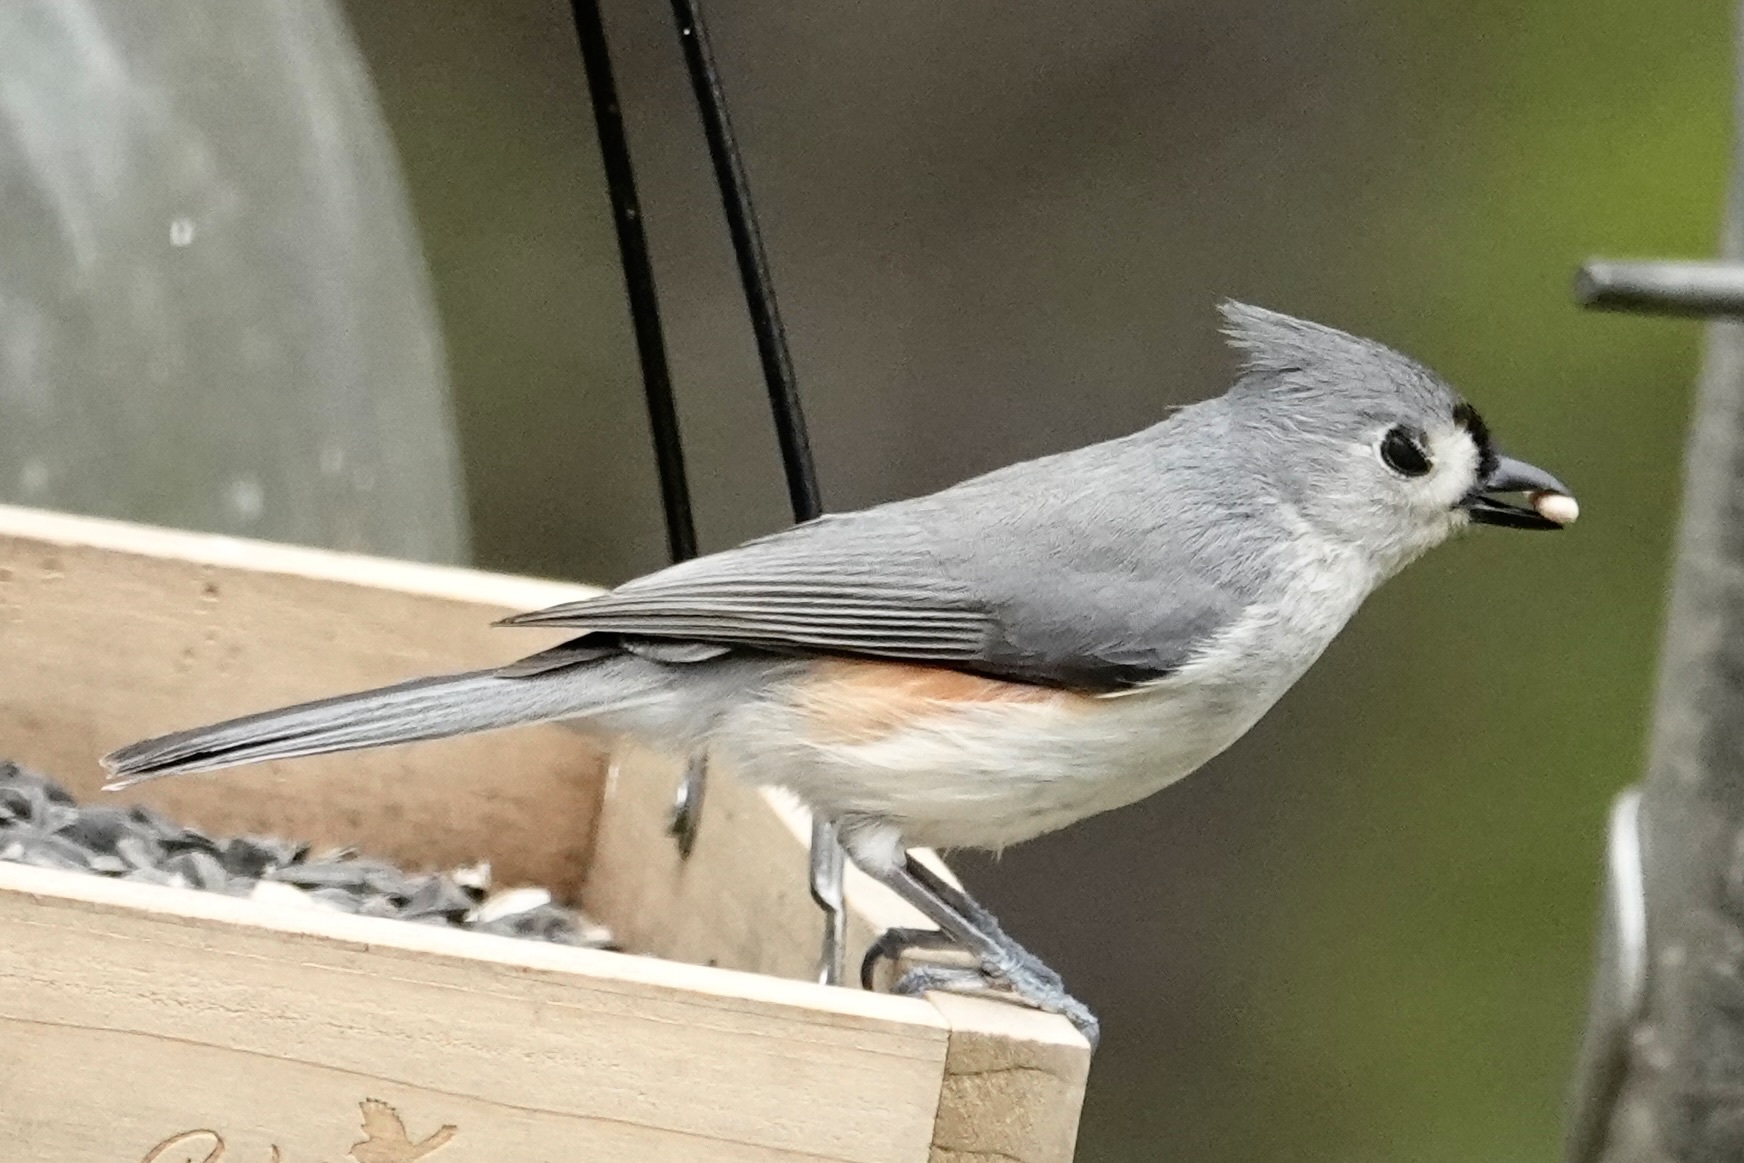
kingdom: Animalia
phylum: Chordata
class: Aves
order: Passeriformes
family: Paridae
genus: Baeolophus
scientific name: Baeolophus bicolor
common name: Tufted titmouse
